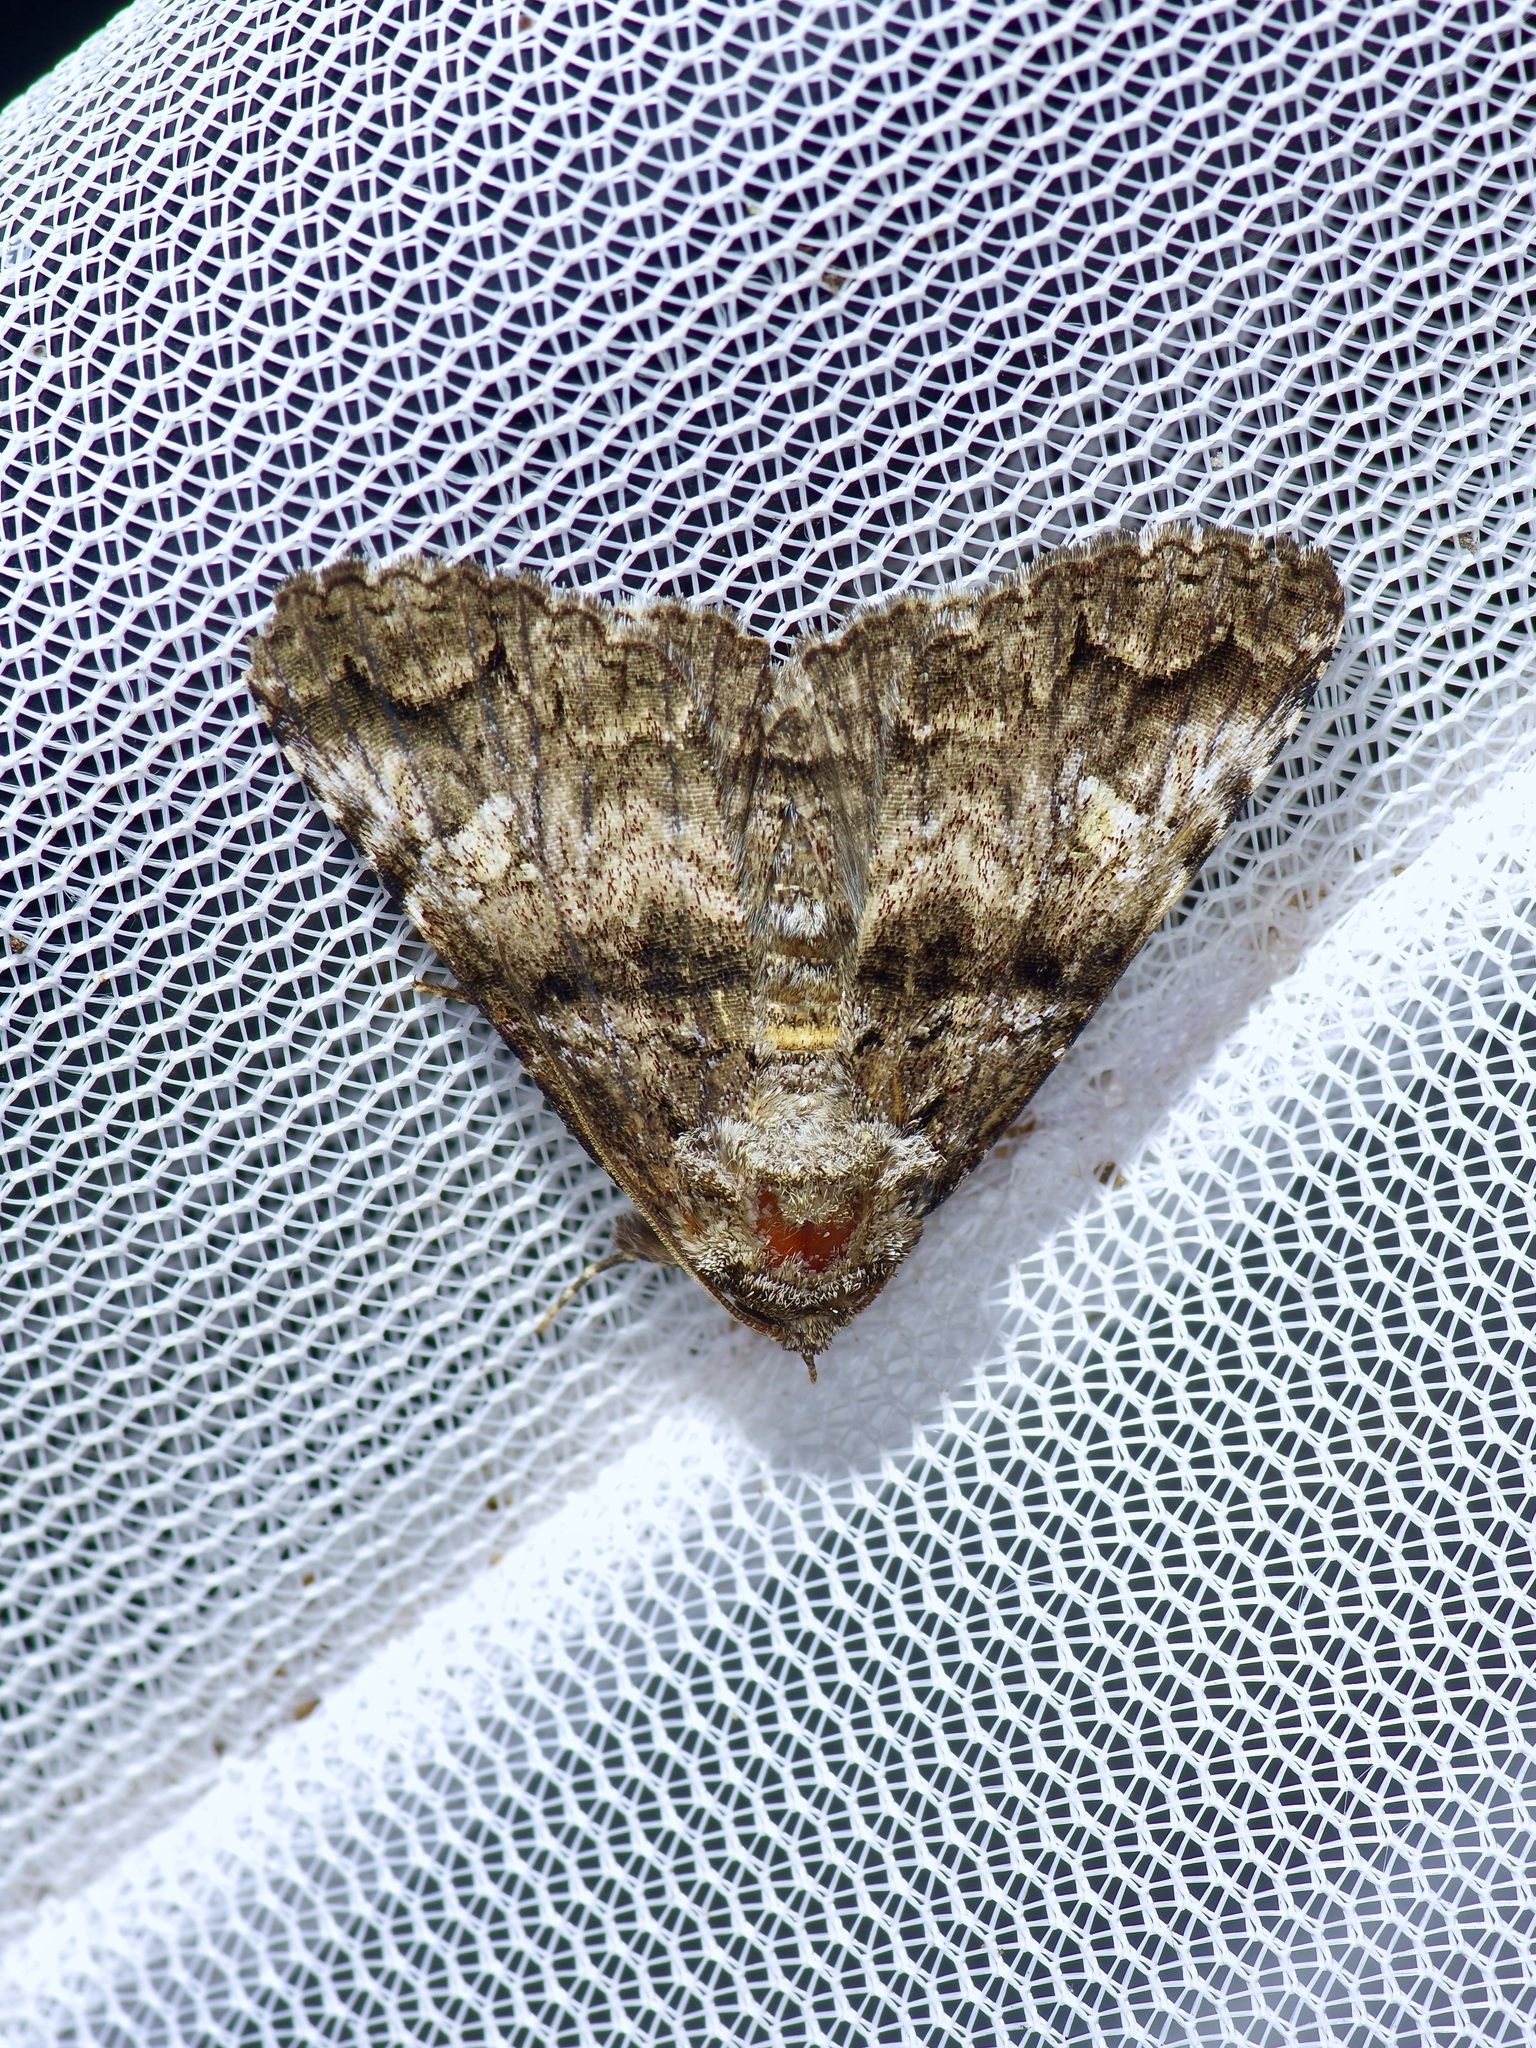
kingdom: Animalia
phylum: Arthropoda
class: Insecta
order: Lepidoptera
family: Erebidae
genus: Metria
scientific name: Metria amella
